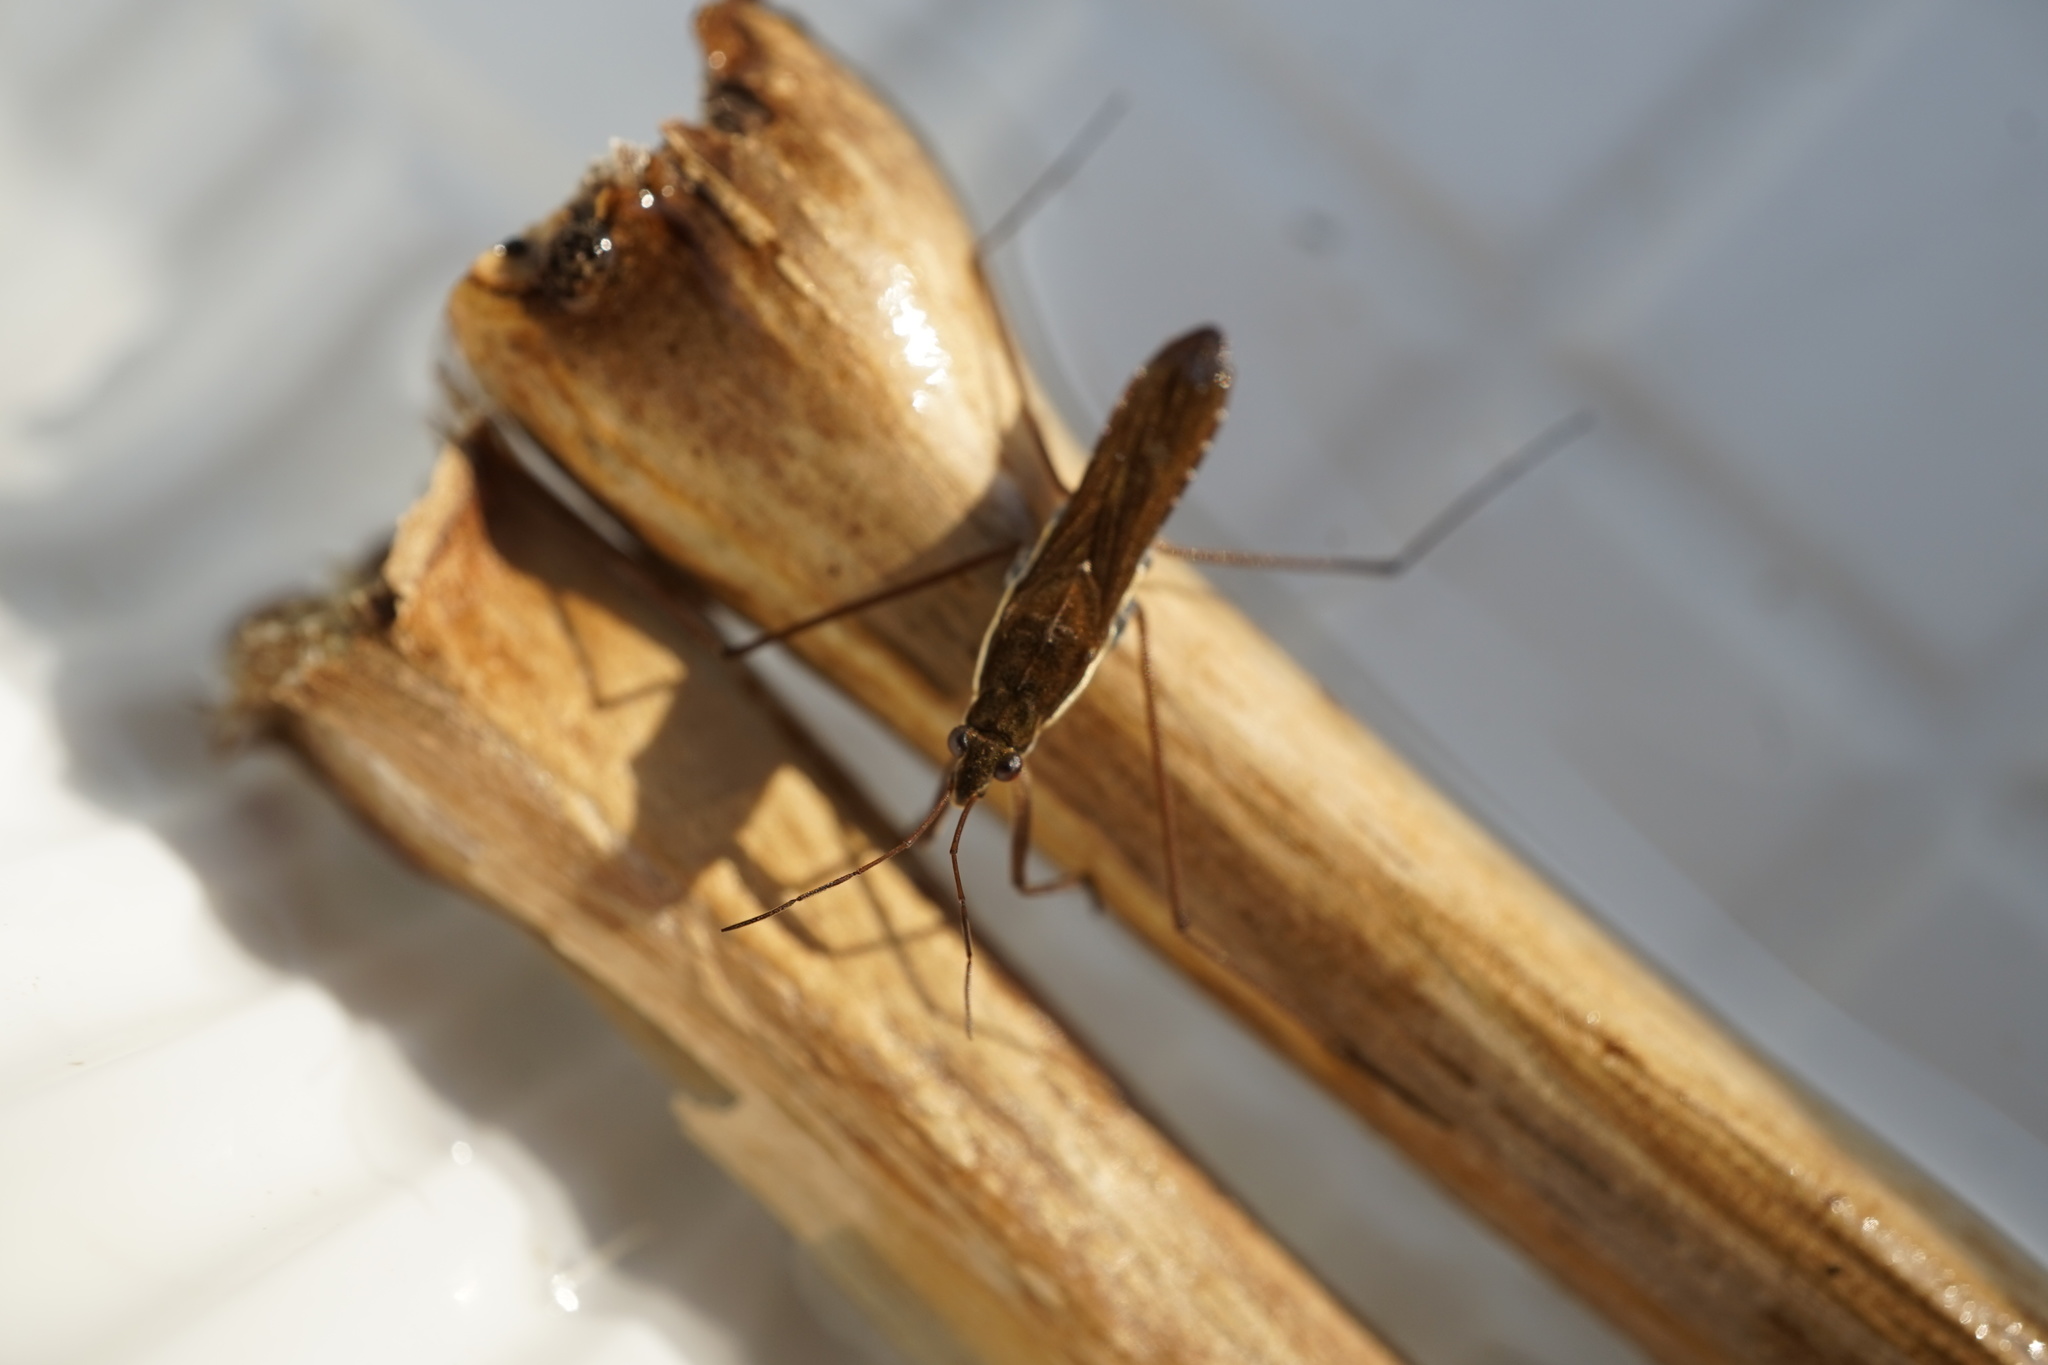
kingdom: Animalia
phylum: Arthropoda
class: Insecta
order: Hemiptera
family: Gerridae
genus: Gerris
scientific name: Gerris gracilicornis
